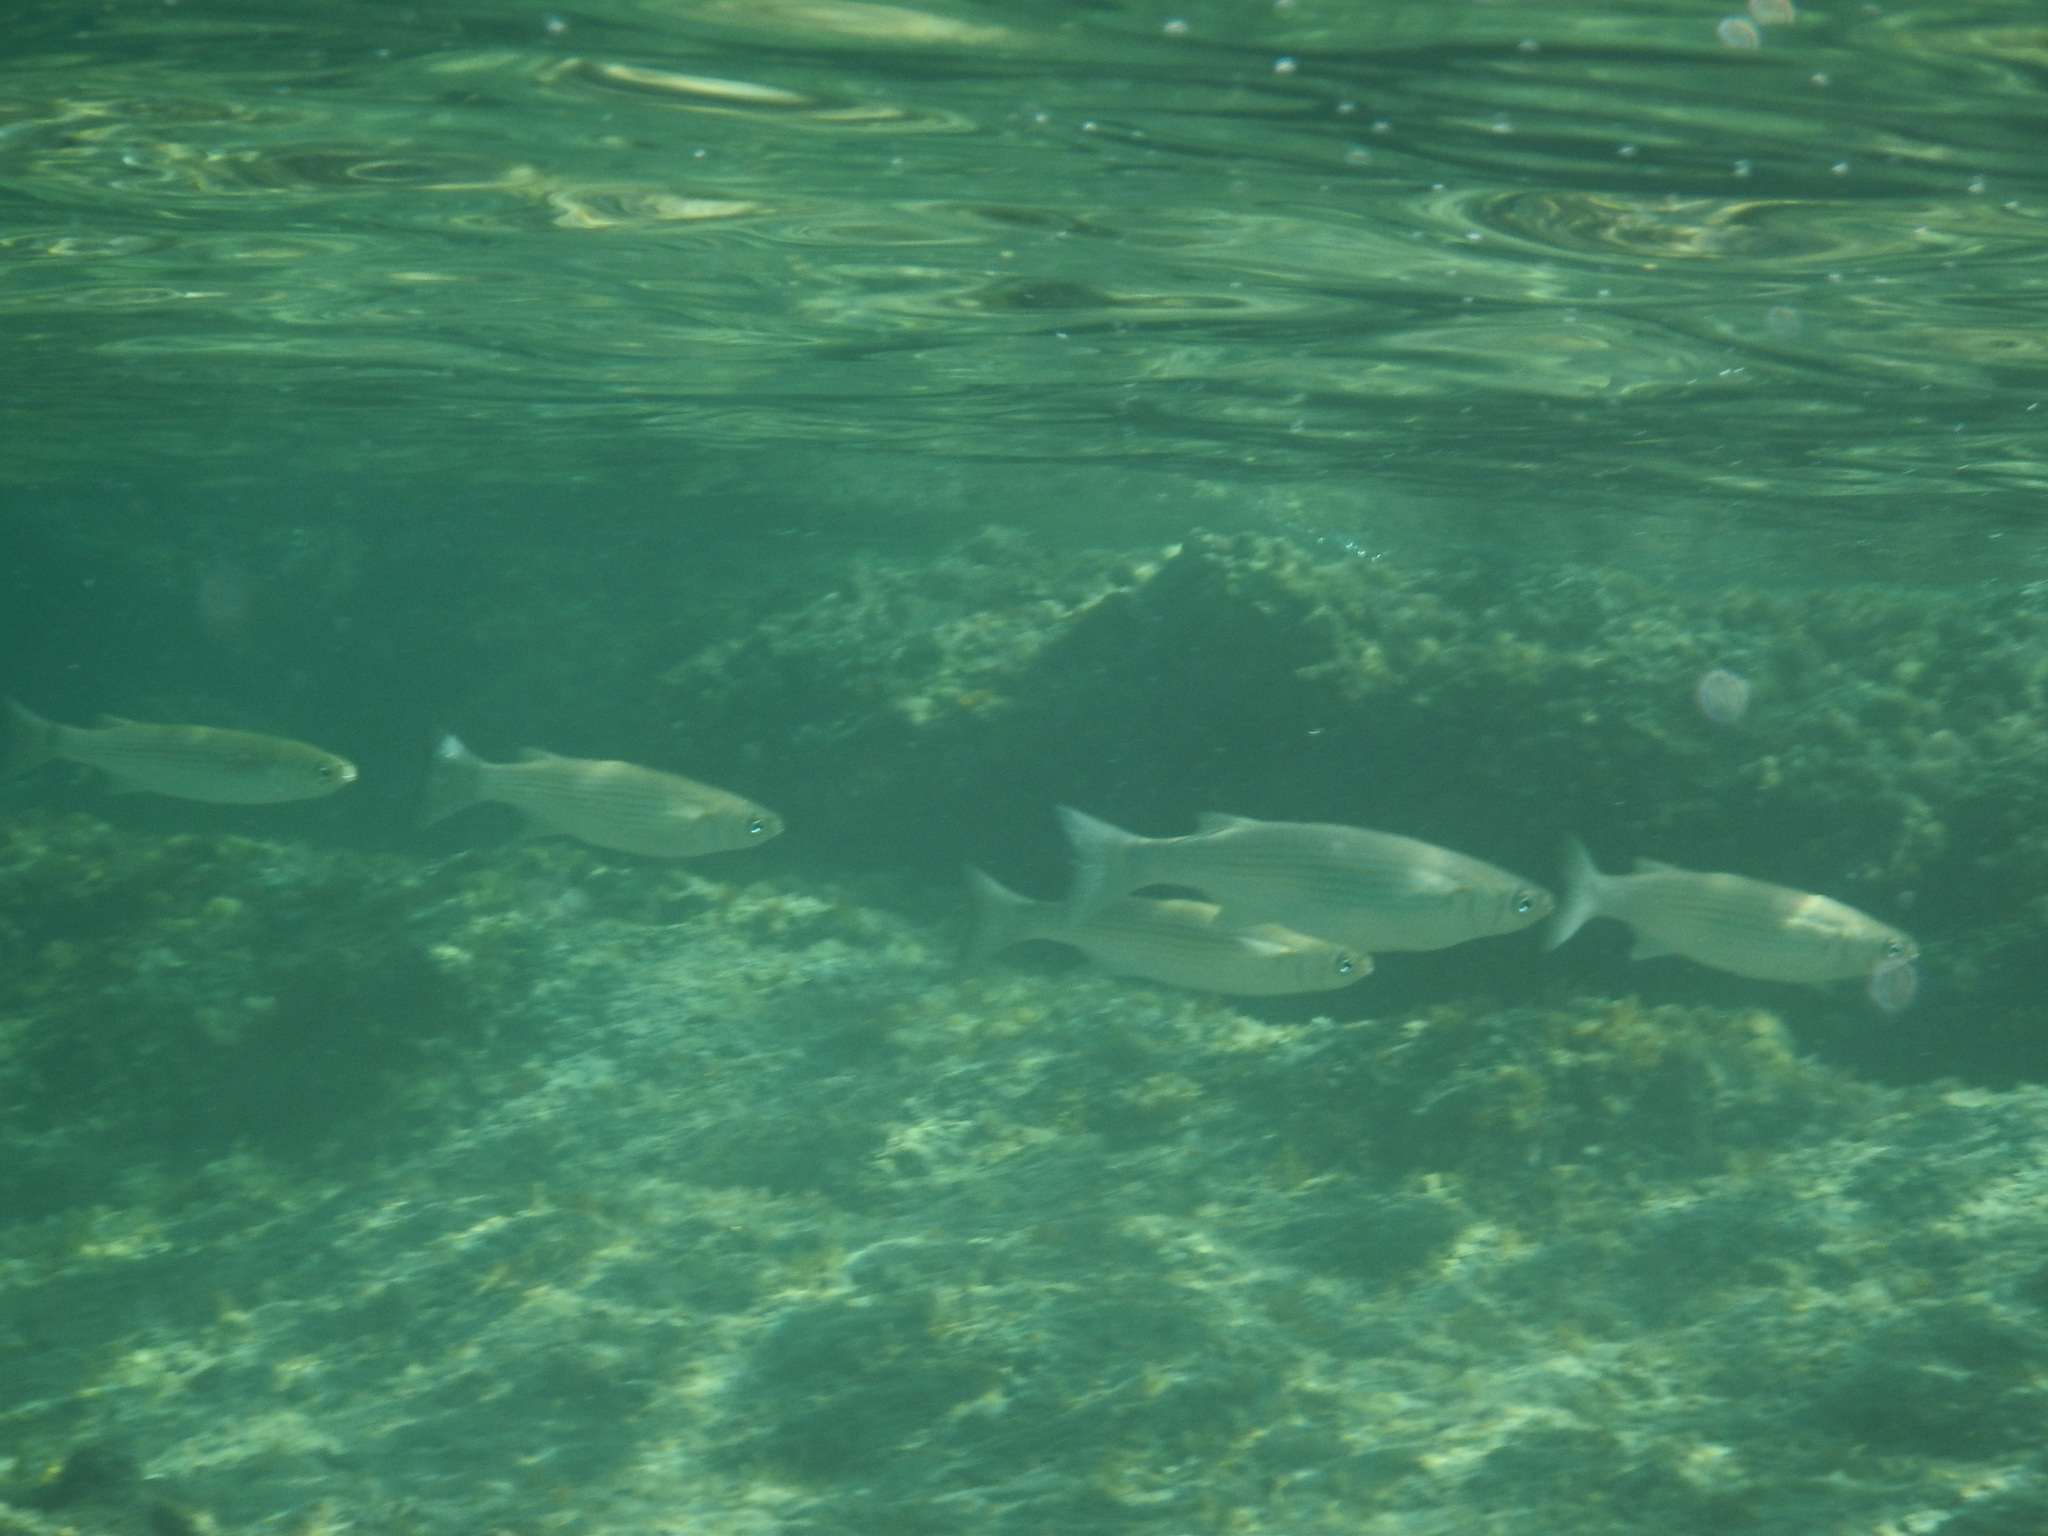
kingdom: Animalia
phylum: Chordata
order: Mugiliformes
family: Mugilidae
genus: Oedalechilus
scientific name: Oedalechilus labeo
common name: Boxlip mullet
